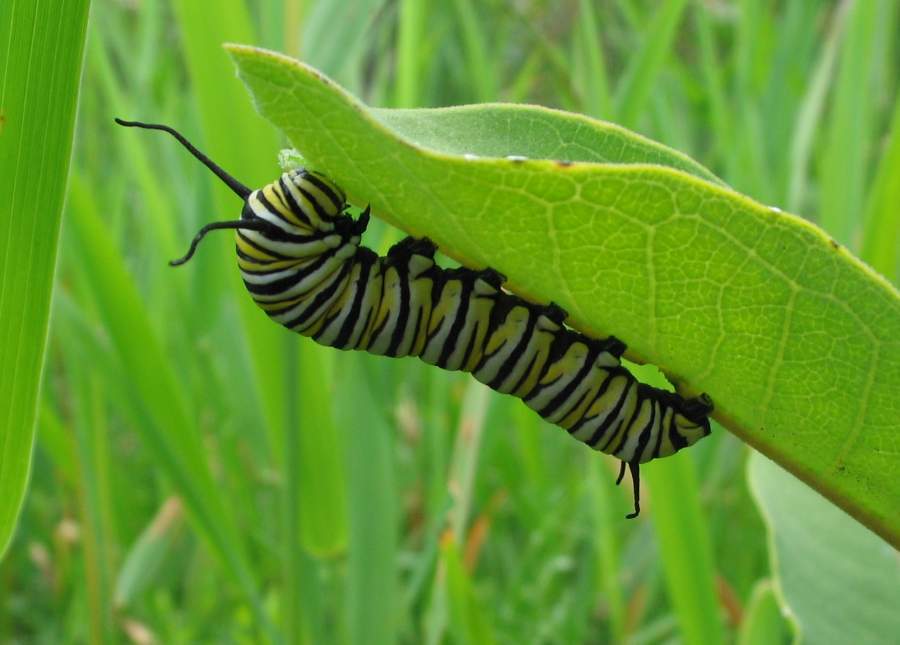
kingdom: Animalia
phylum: Arthropoda
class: Insecta
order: Lepidoptera
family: Nymphalidae
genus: Danaus
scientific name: Danaus plexippus
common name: Monarch
